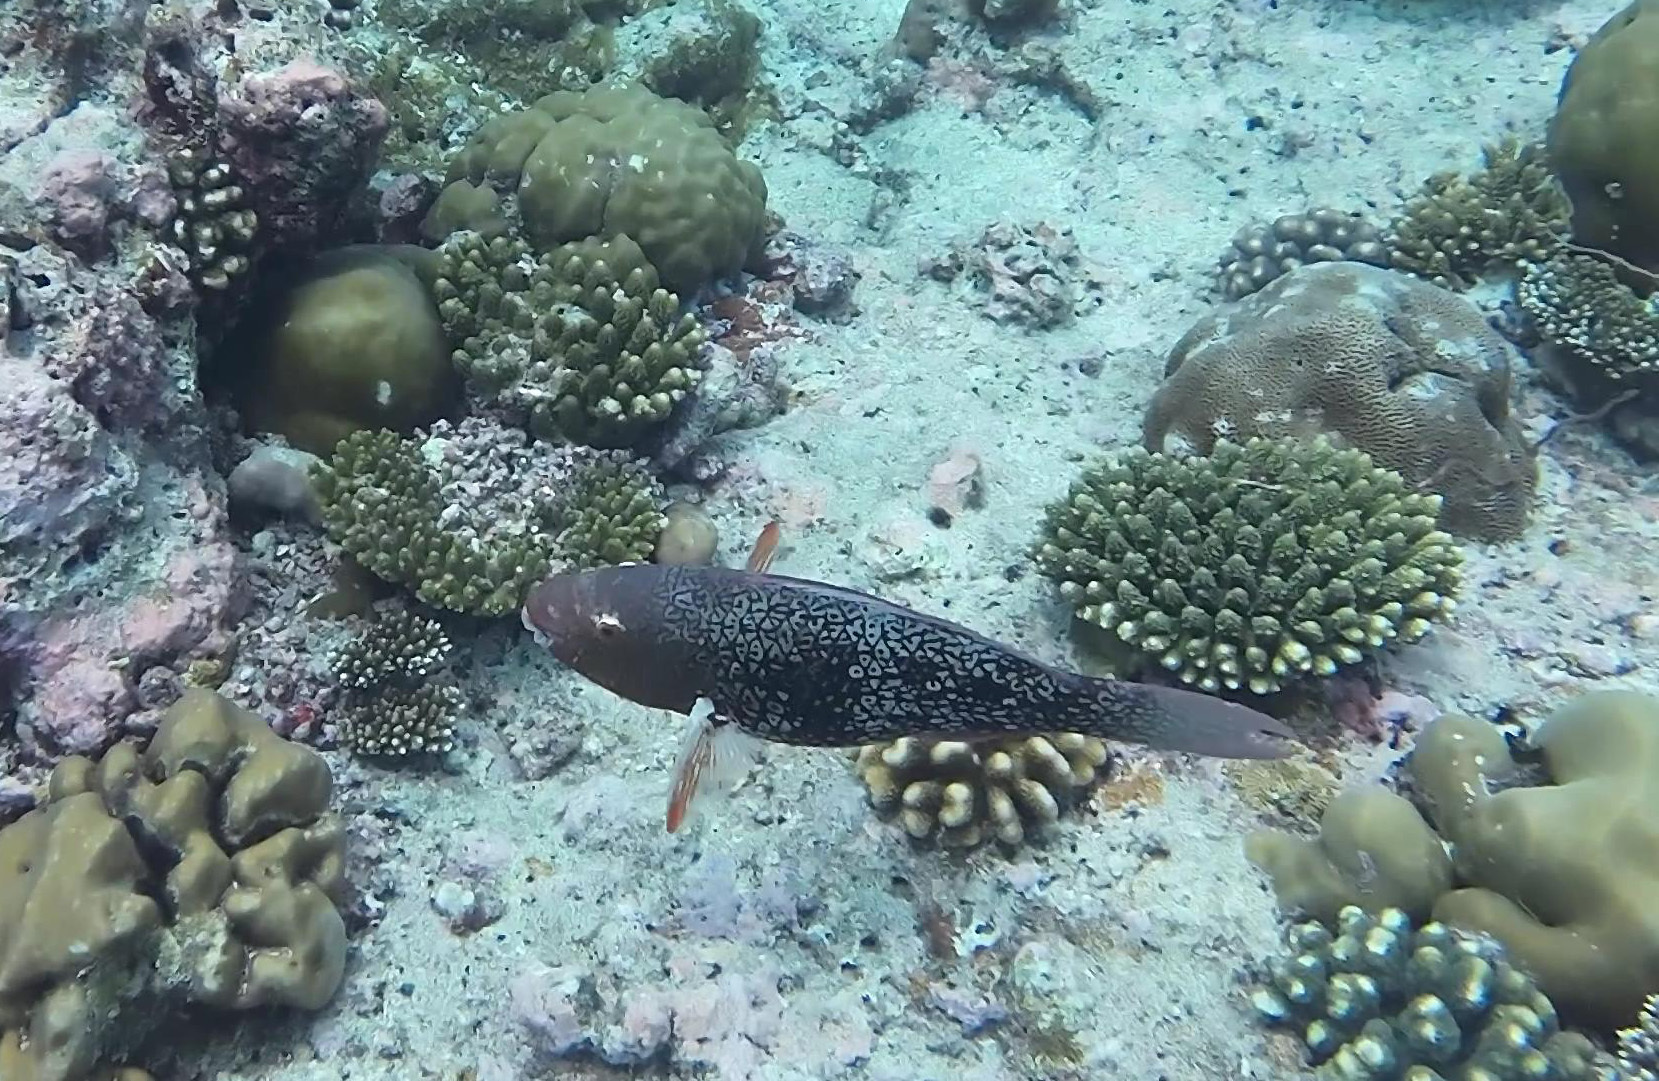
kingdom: Animalia
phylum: Chordata
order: Perciformes
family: Scaridae
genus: Scarus
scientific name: Scarus rubroviolaceus
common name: Ember parrotfish
